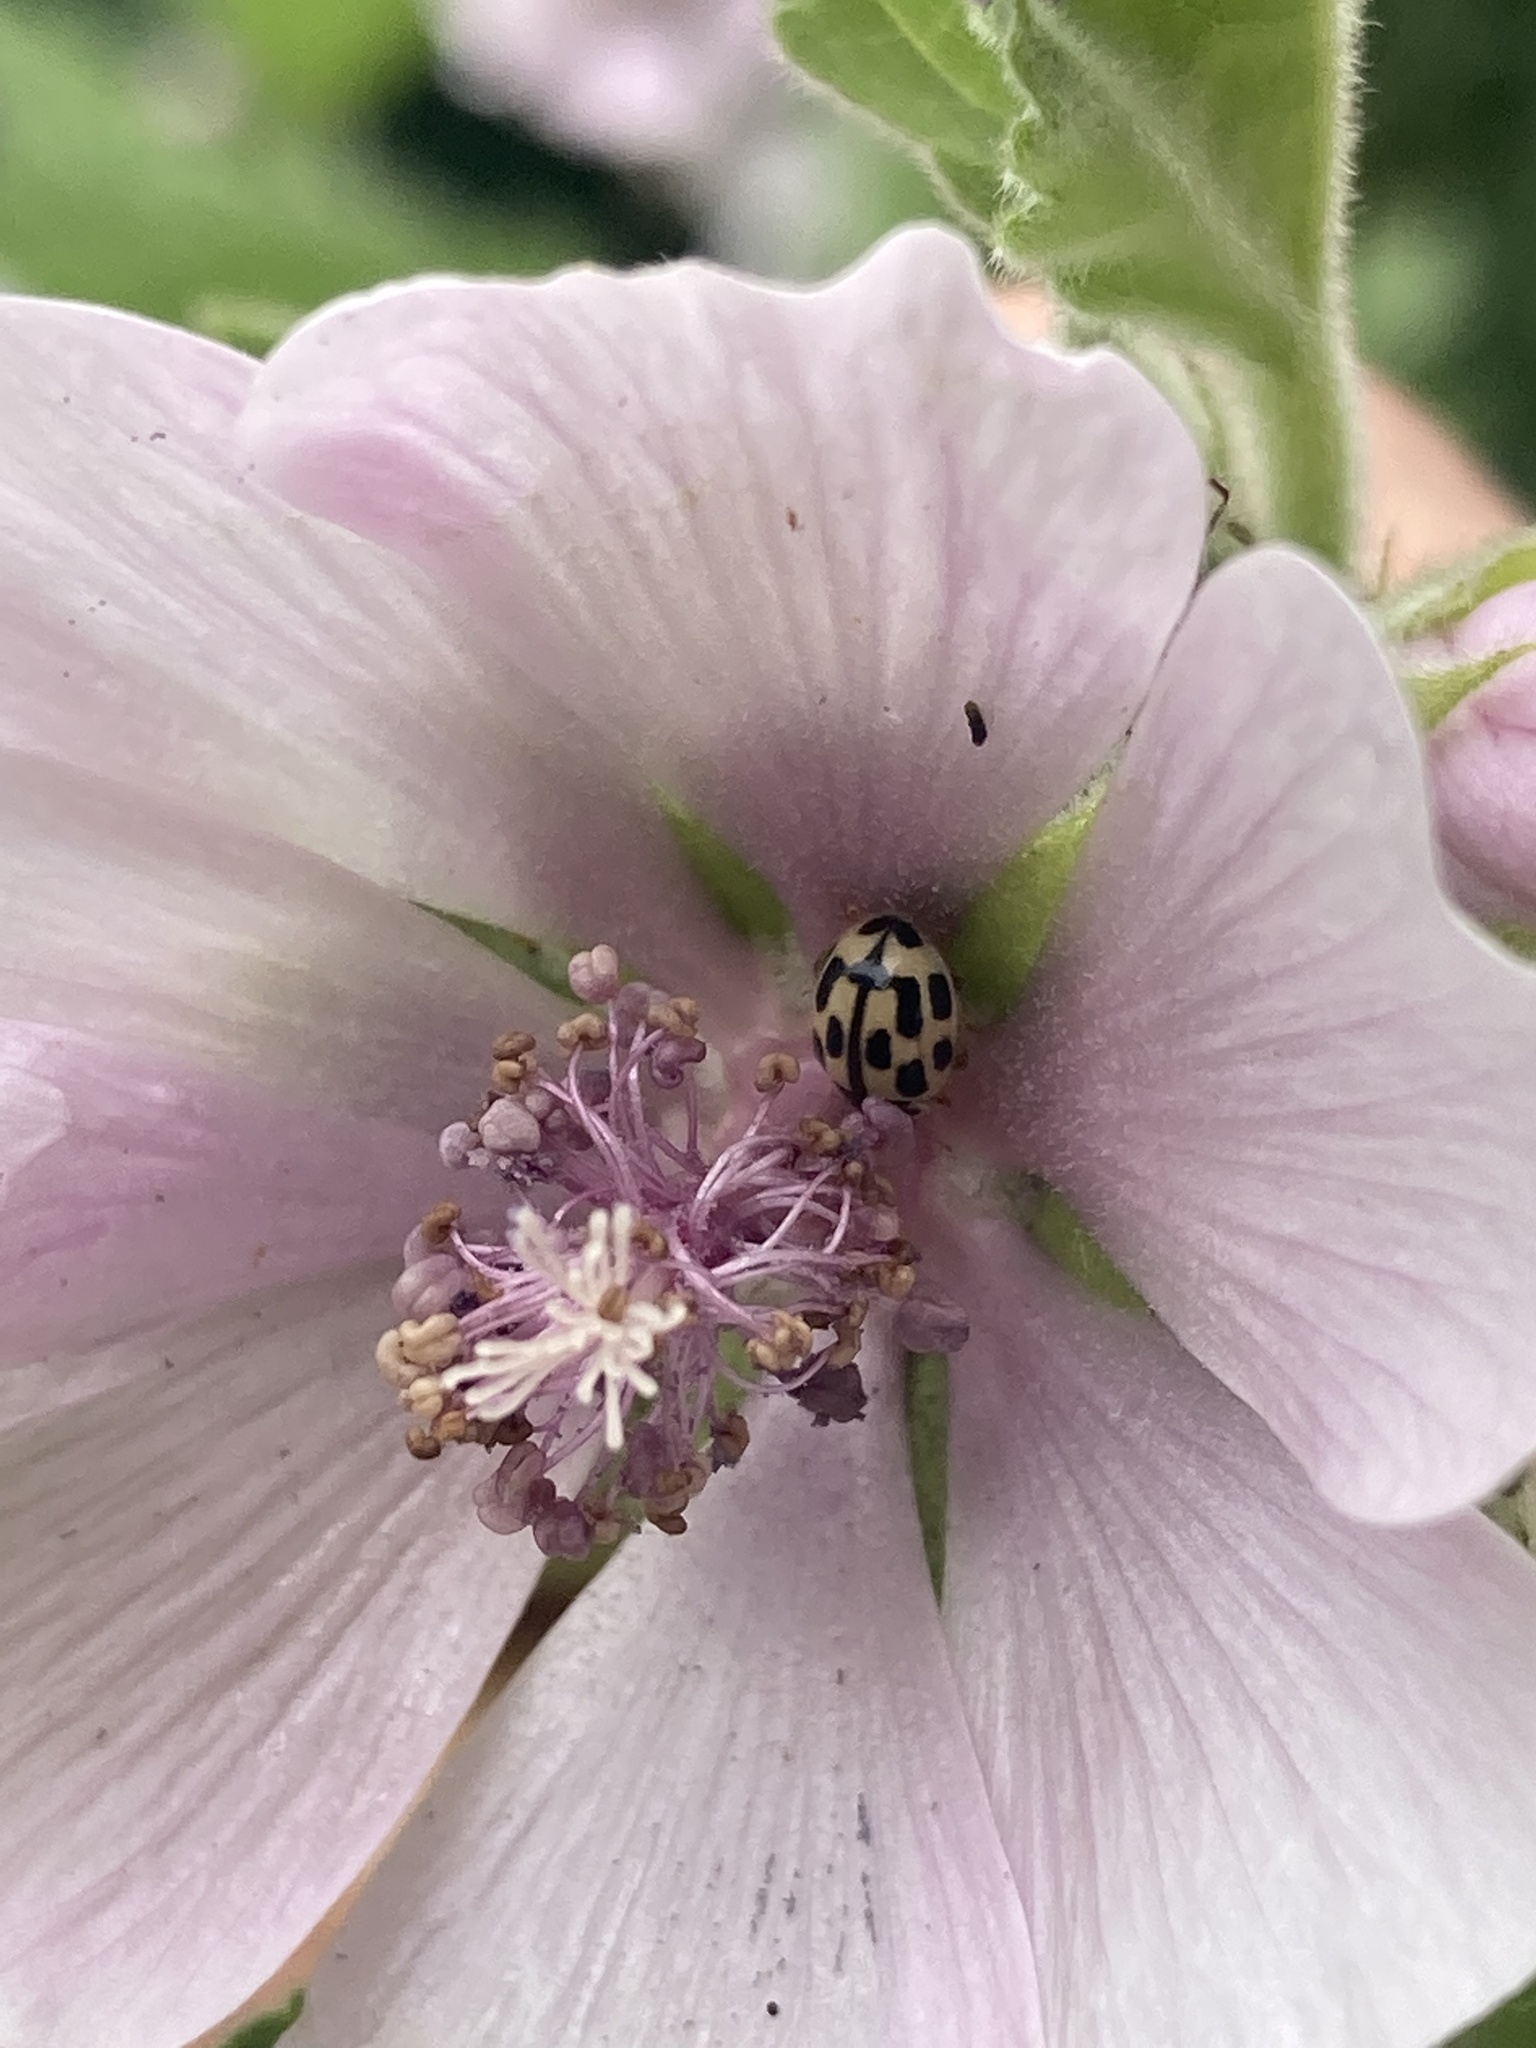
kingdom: Animalia
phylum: Arthropoda
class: Insecta
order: Coleoptera
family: Coccinellidae
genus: Propylaea
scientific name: Propylaea quatuordecimpunctata
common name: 14-spotted ladybird beetle
